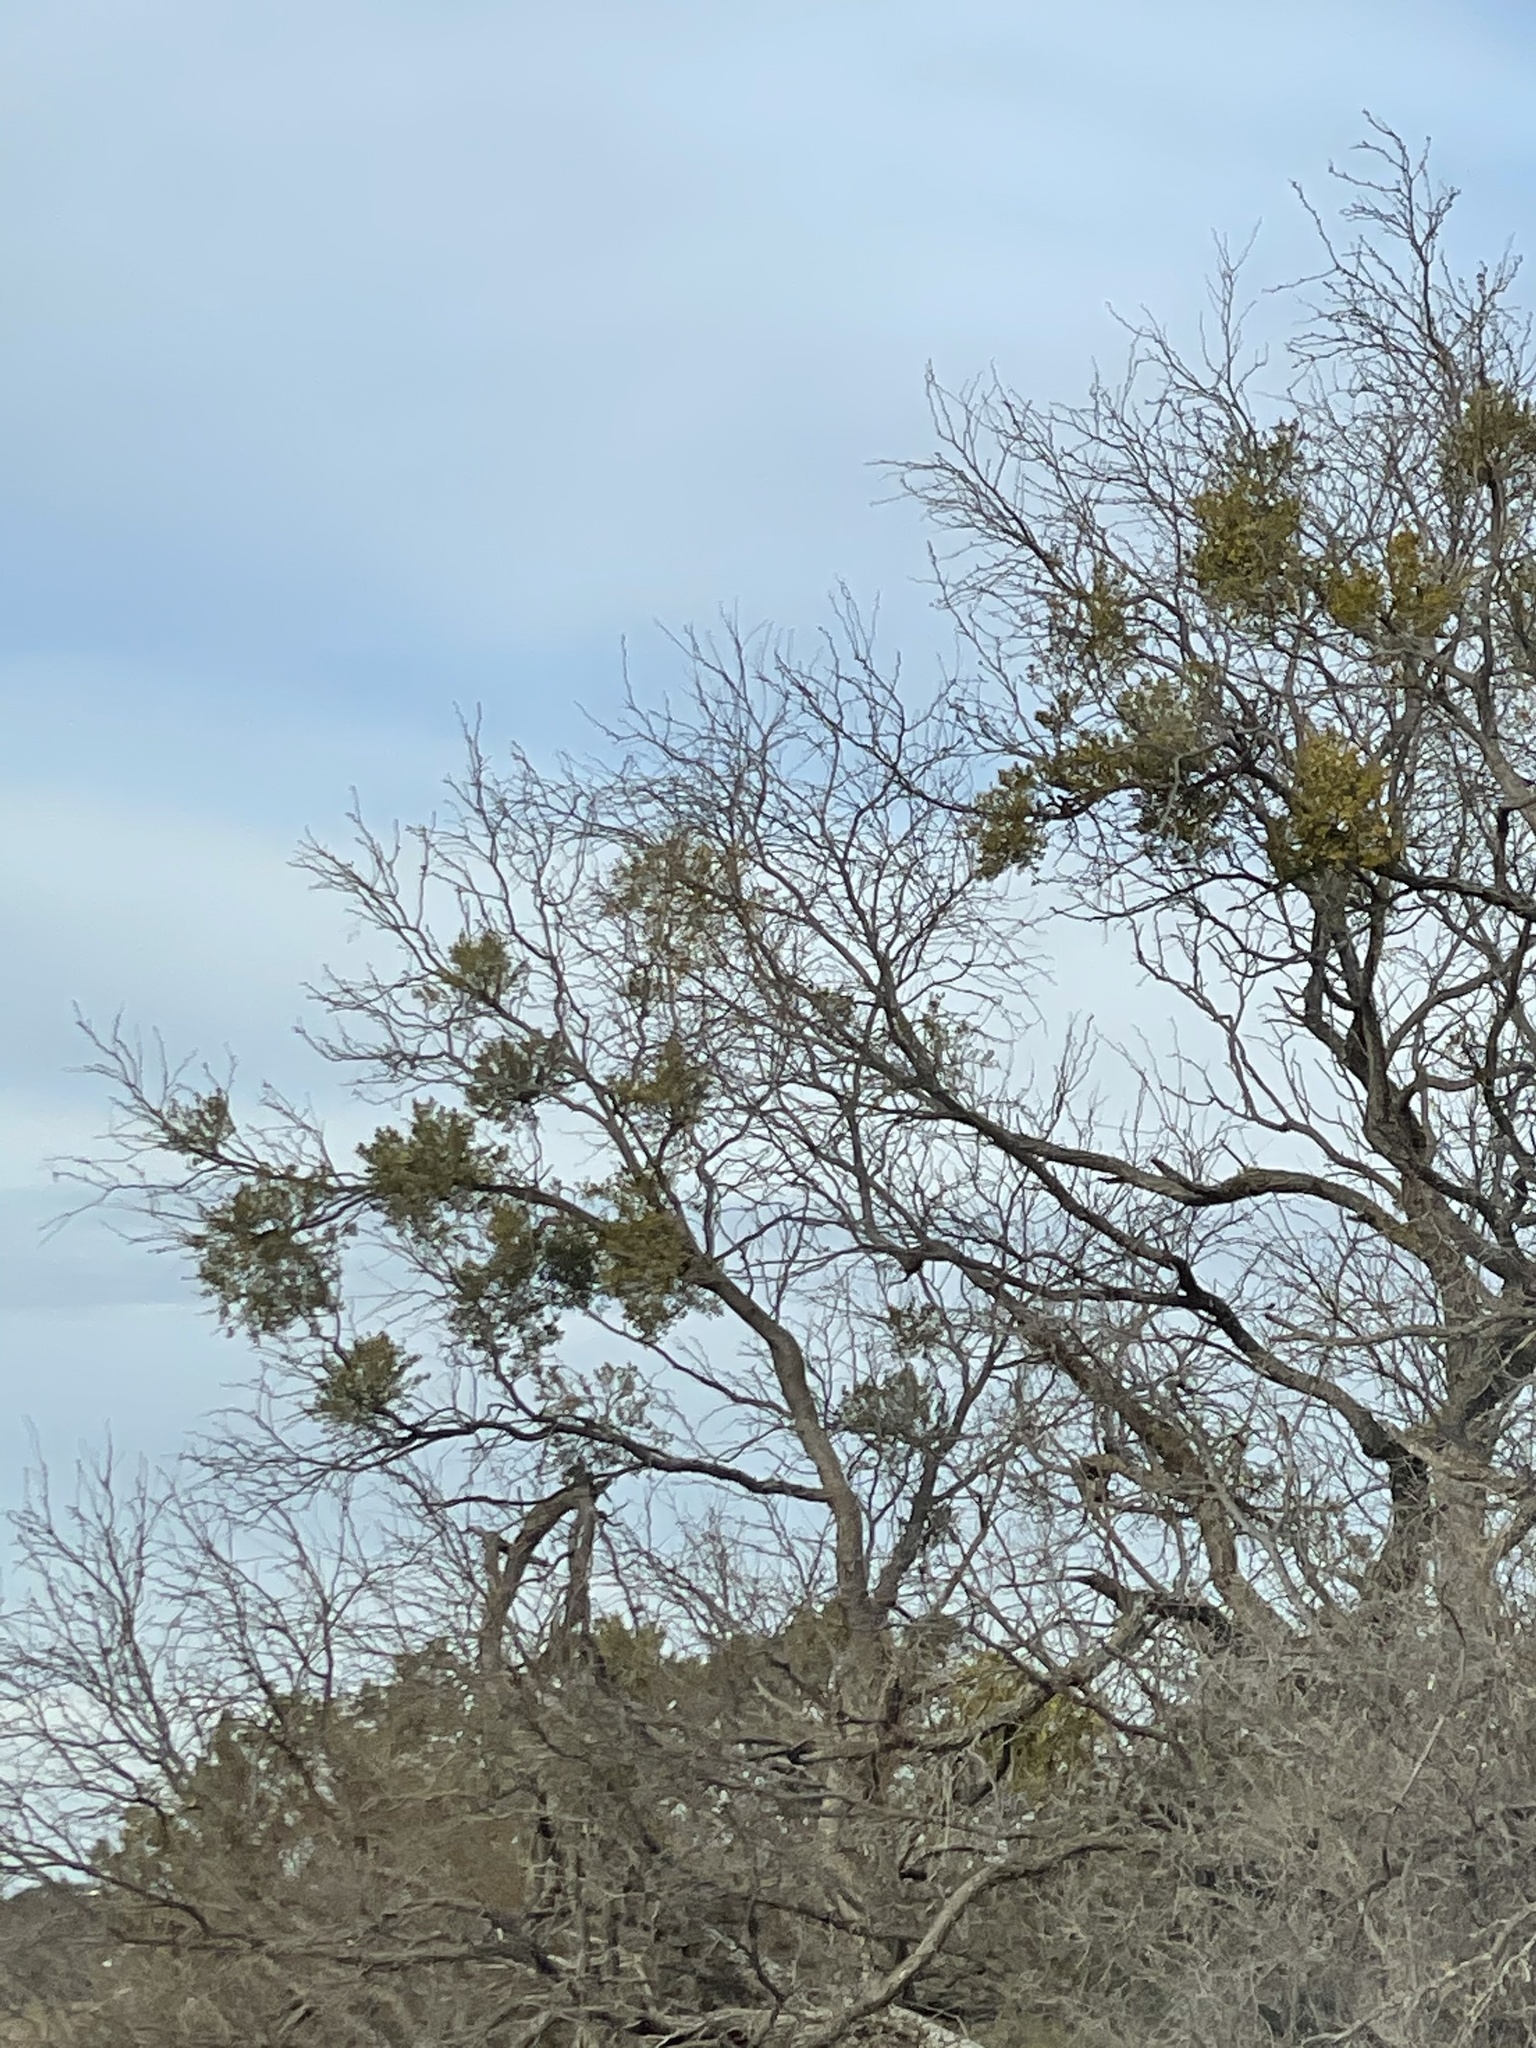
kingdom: Plantae
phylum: Tracheophyta
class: Magnoliopsida
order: Fabales
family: Fabaceae
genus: Prosopis
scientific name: Prosopis glandulosa
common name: Honey mesquite
